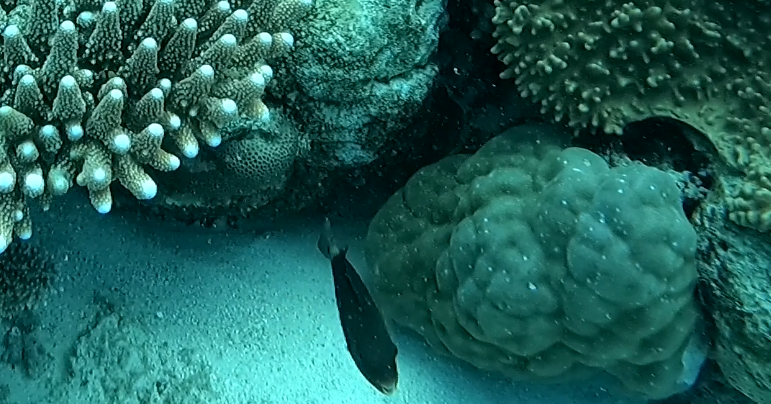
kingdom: Animalia
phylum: Chordata
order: Perciformes
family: Scaridae
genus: Chlorurus
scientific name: Chlorurus spilurus
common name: Bullethead parrotfish
